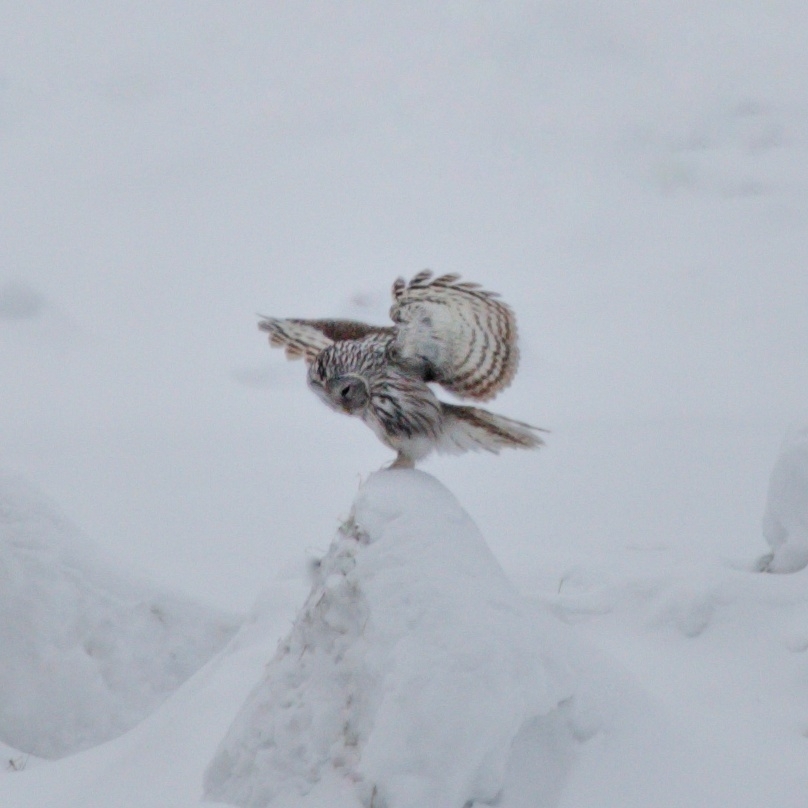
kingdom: Animalia
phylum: Chordata
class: Aves
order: Strigiformes
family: Strigidae
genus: Strix
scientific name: Strix uralensis
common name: Ural owl
